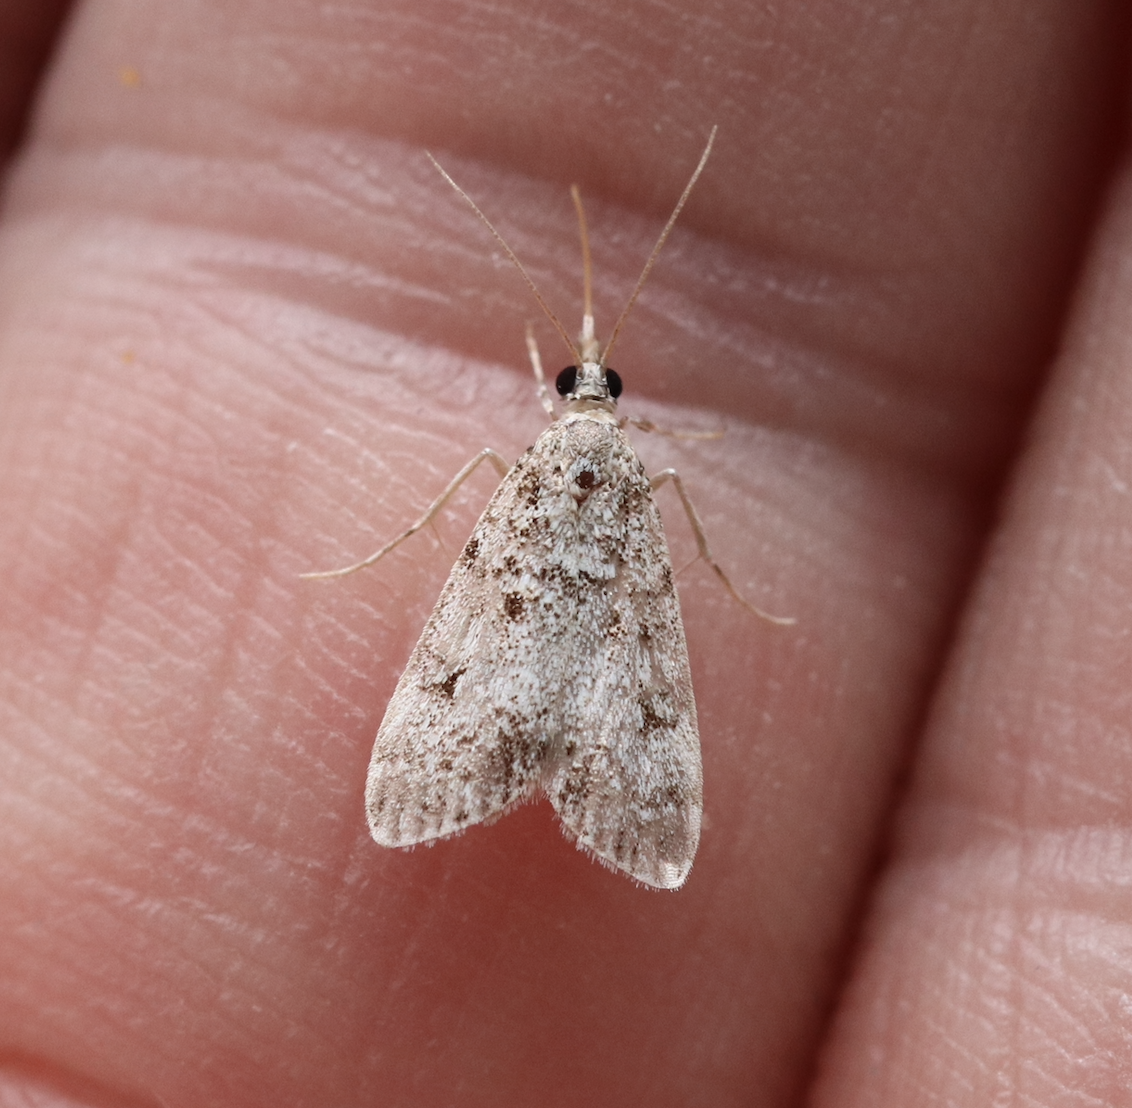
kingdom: Animalia
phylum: Arthropoda
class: Insecta
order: Lepidoptera
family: Crambidae
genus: Eudonia
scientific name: Eudonia lacustrata
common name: Little grey
